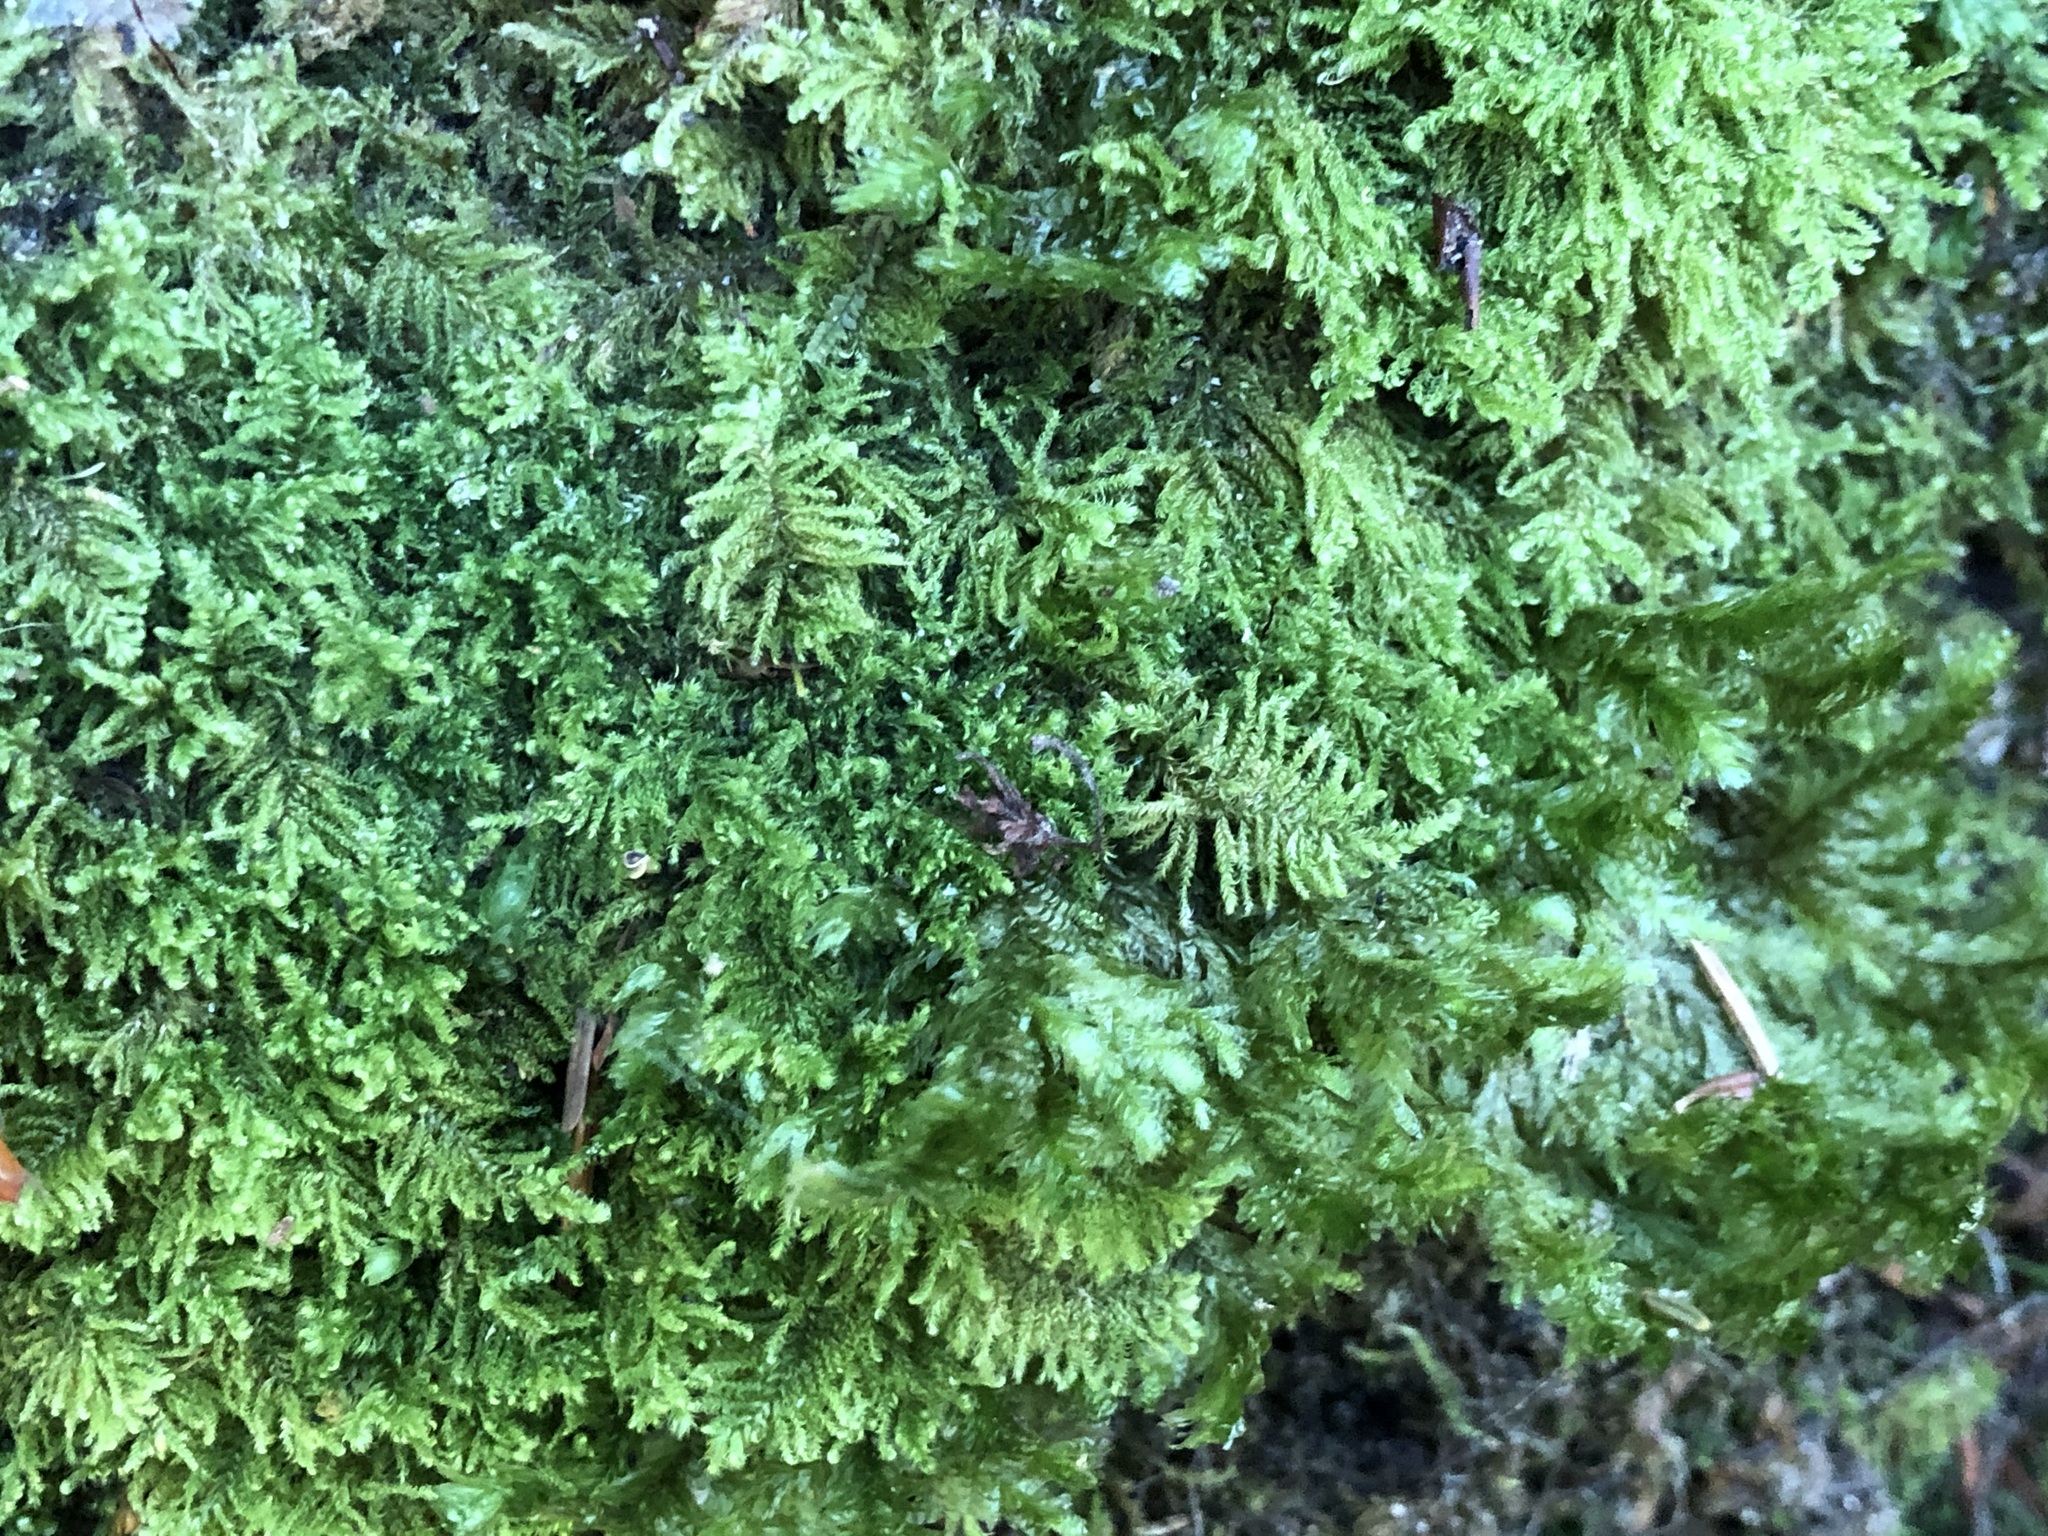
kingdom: Plantae
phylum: Bryophyta
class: Bryopsida
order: Hypnales
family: Myuriaceae
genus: Ctenidium
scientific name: Ctenidium molluscum
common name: Chalk comb-moss
